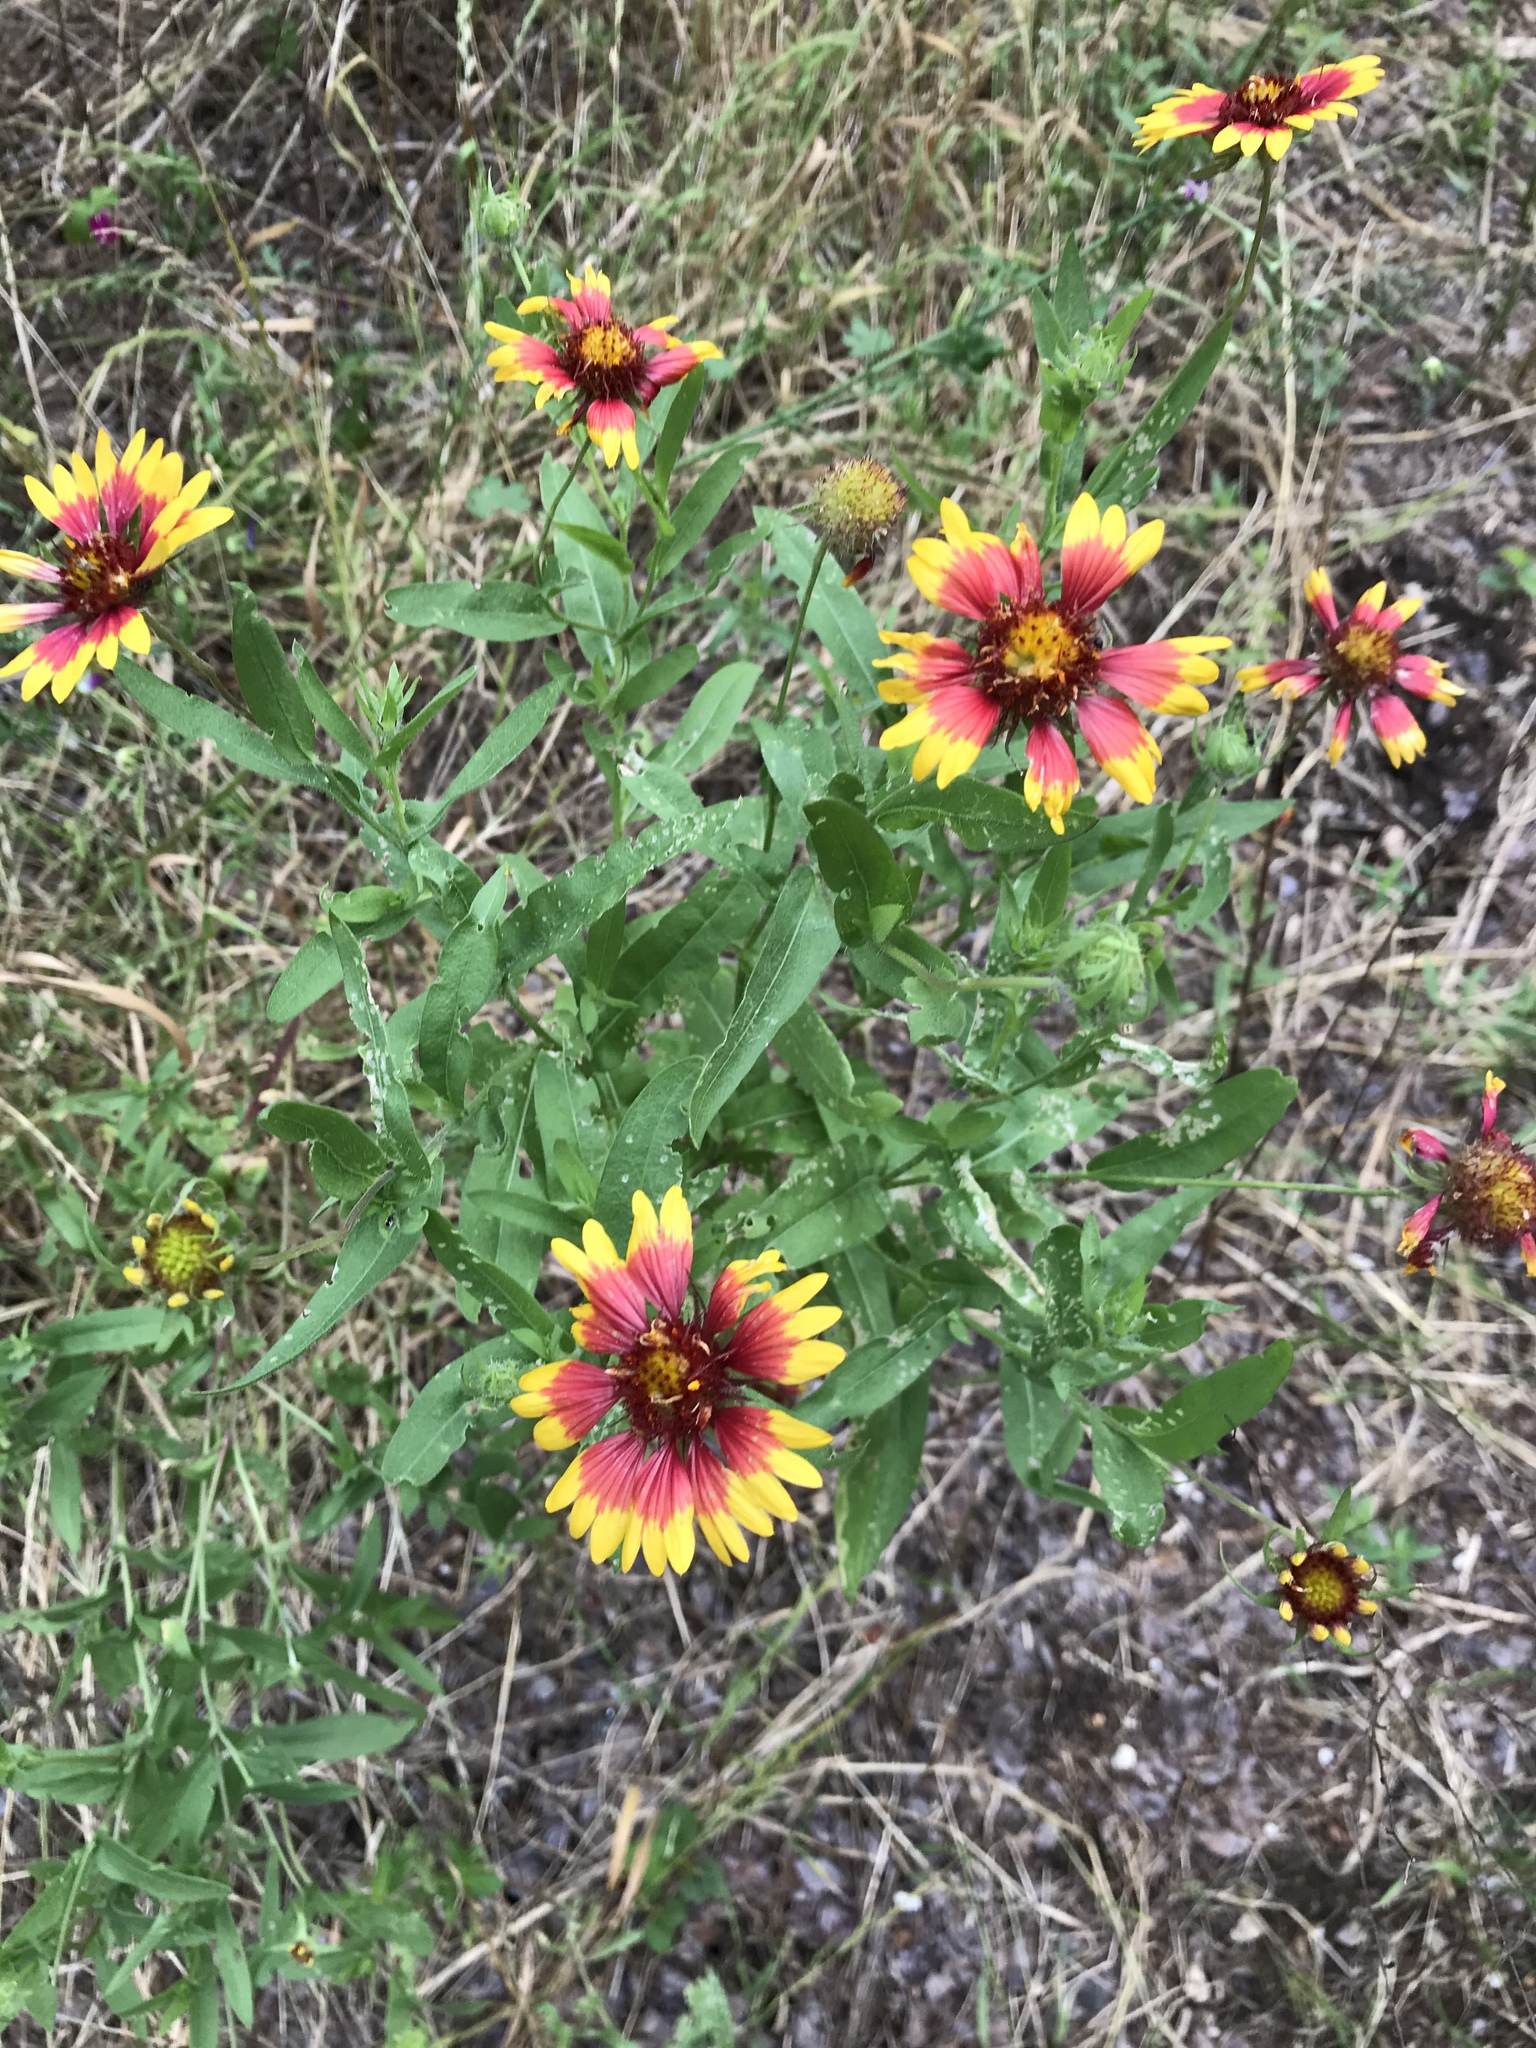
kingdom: Plantae
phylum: Tracheophyta
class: Magnoliopsida
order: Asterales
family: Asteraceae
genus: Gaillardia
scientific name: Gaillardia pulchella
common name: Firewheel
